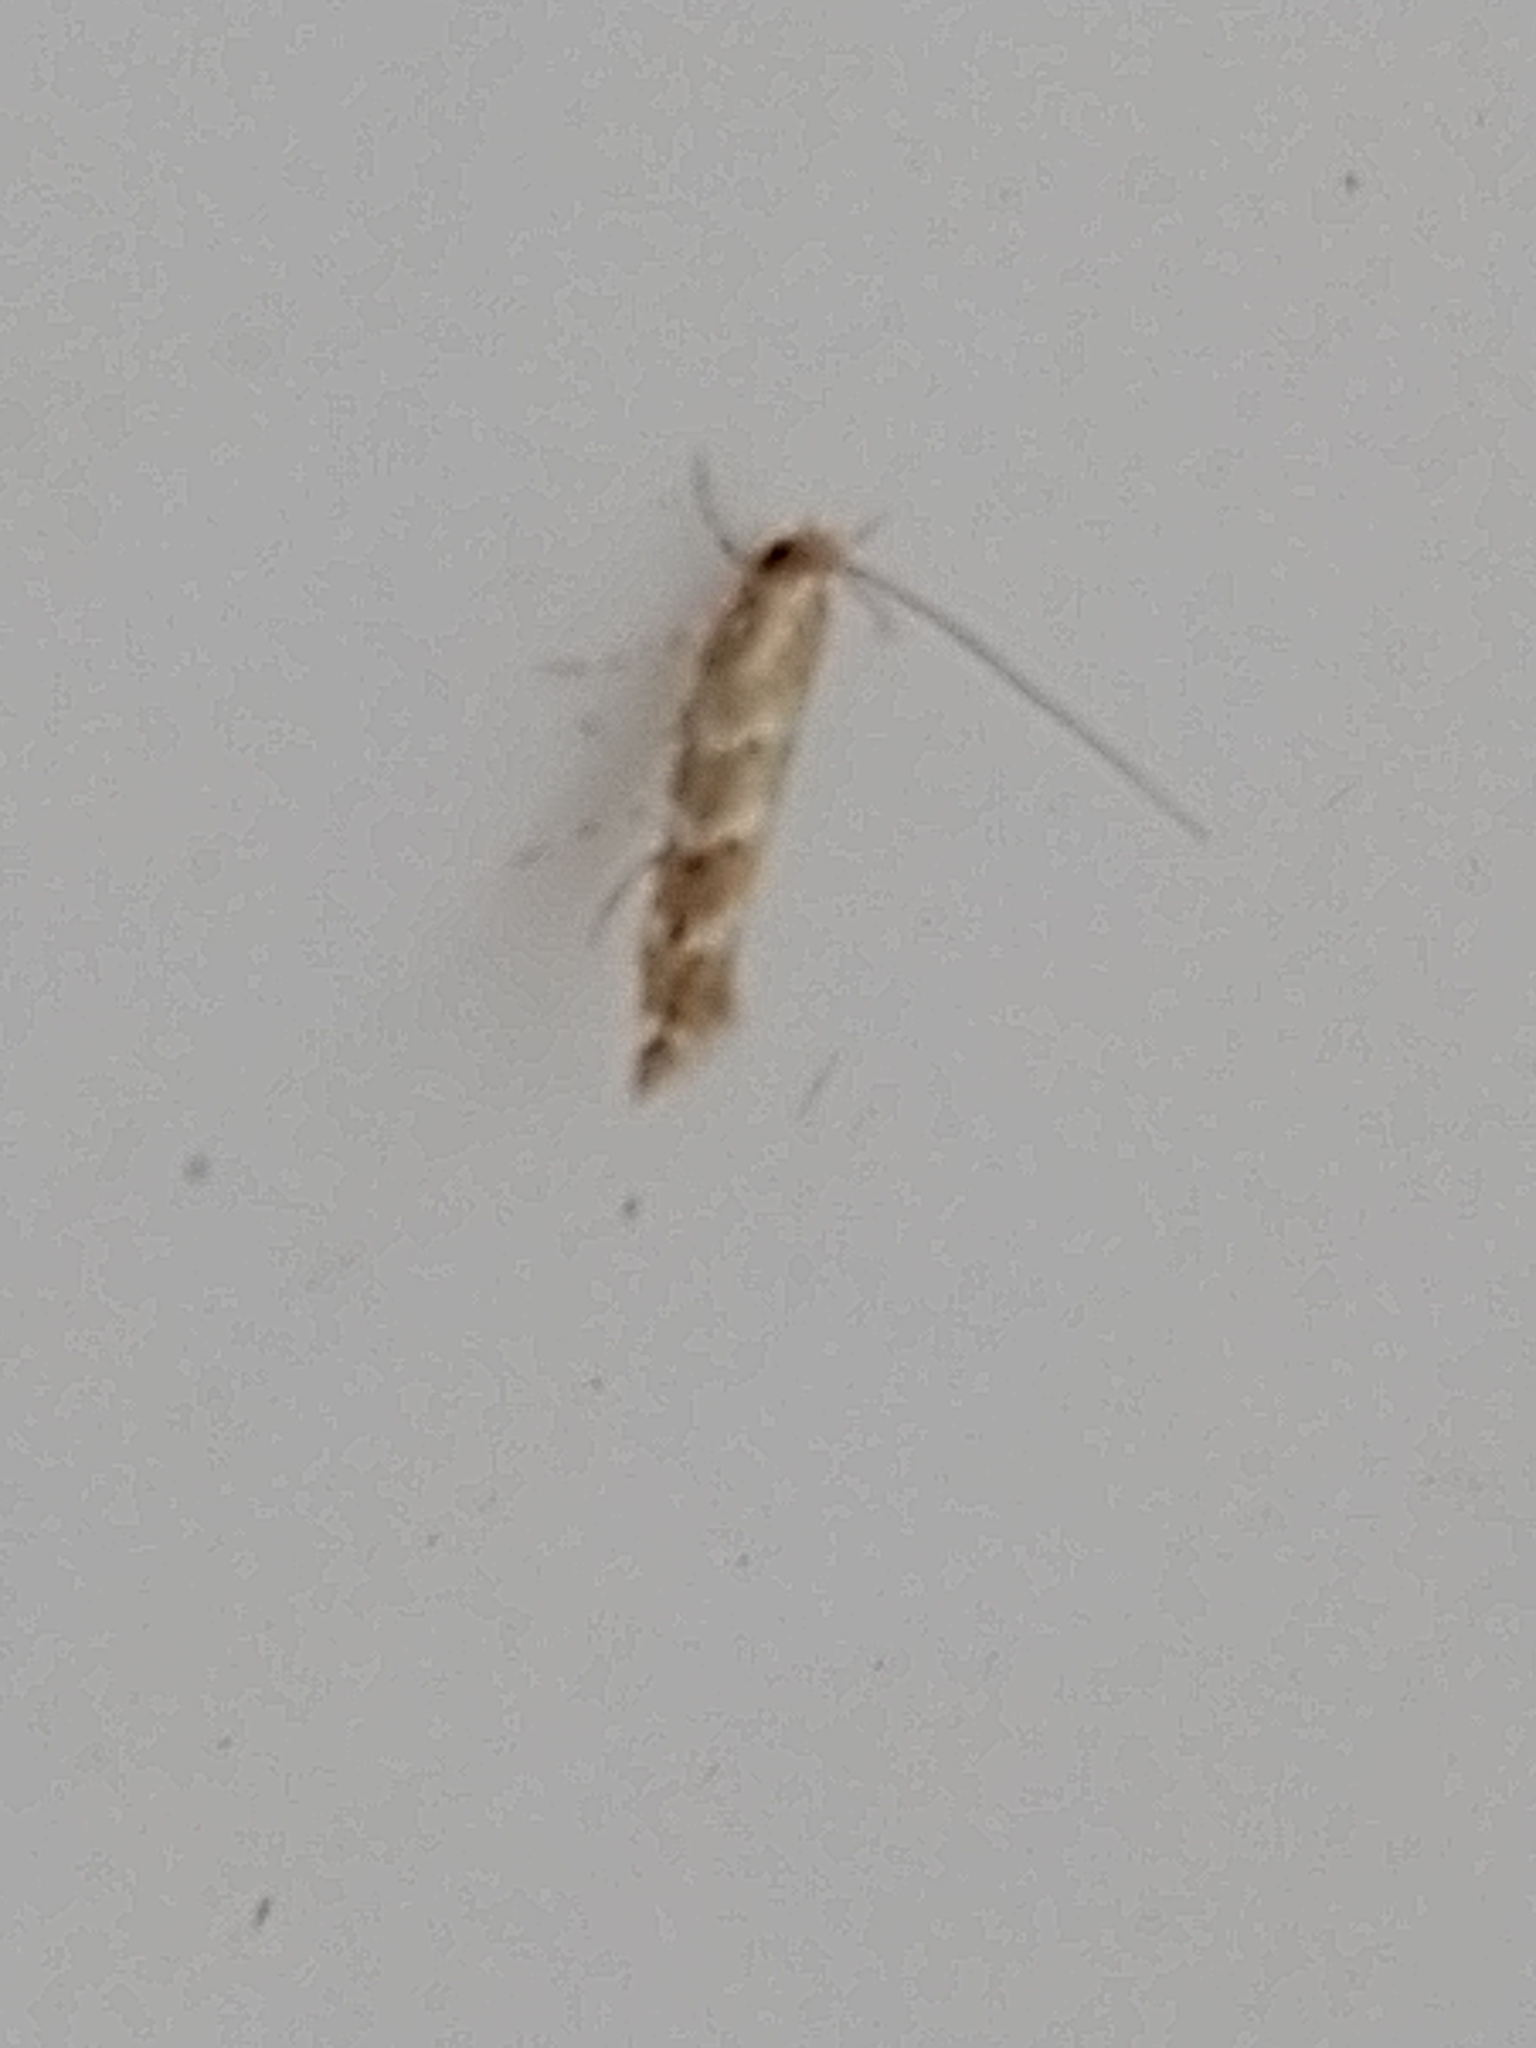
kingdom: Animalia
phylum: Arthropoda
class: Insecta
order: Lepidoptera
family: Gracillariidae
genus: Cameraria
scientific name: Cameraria ohridella
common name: Horse-chestnut leaf-miner
